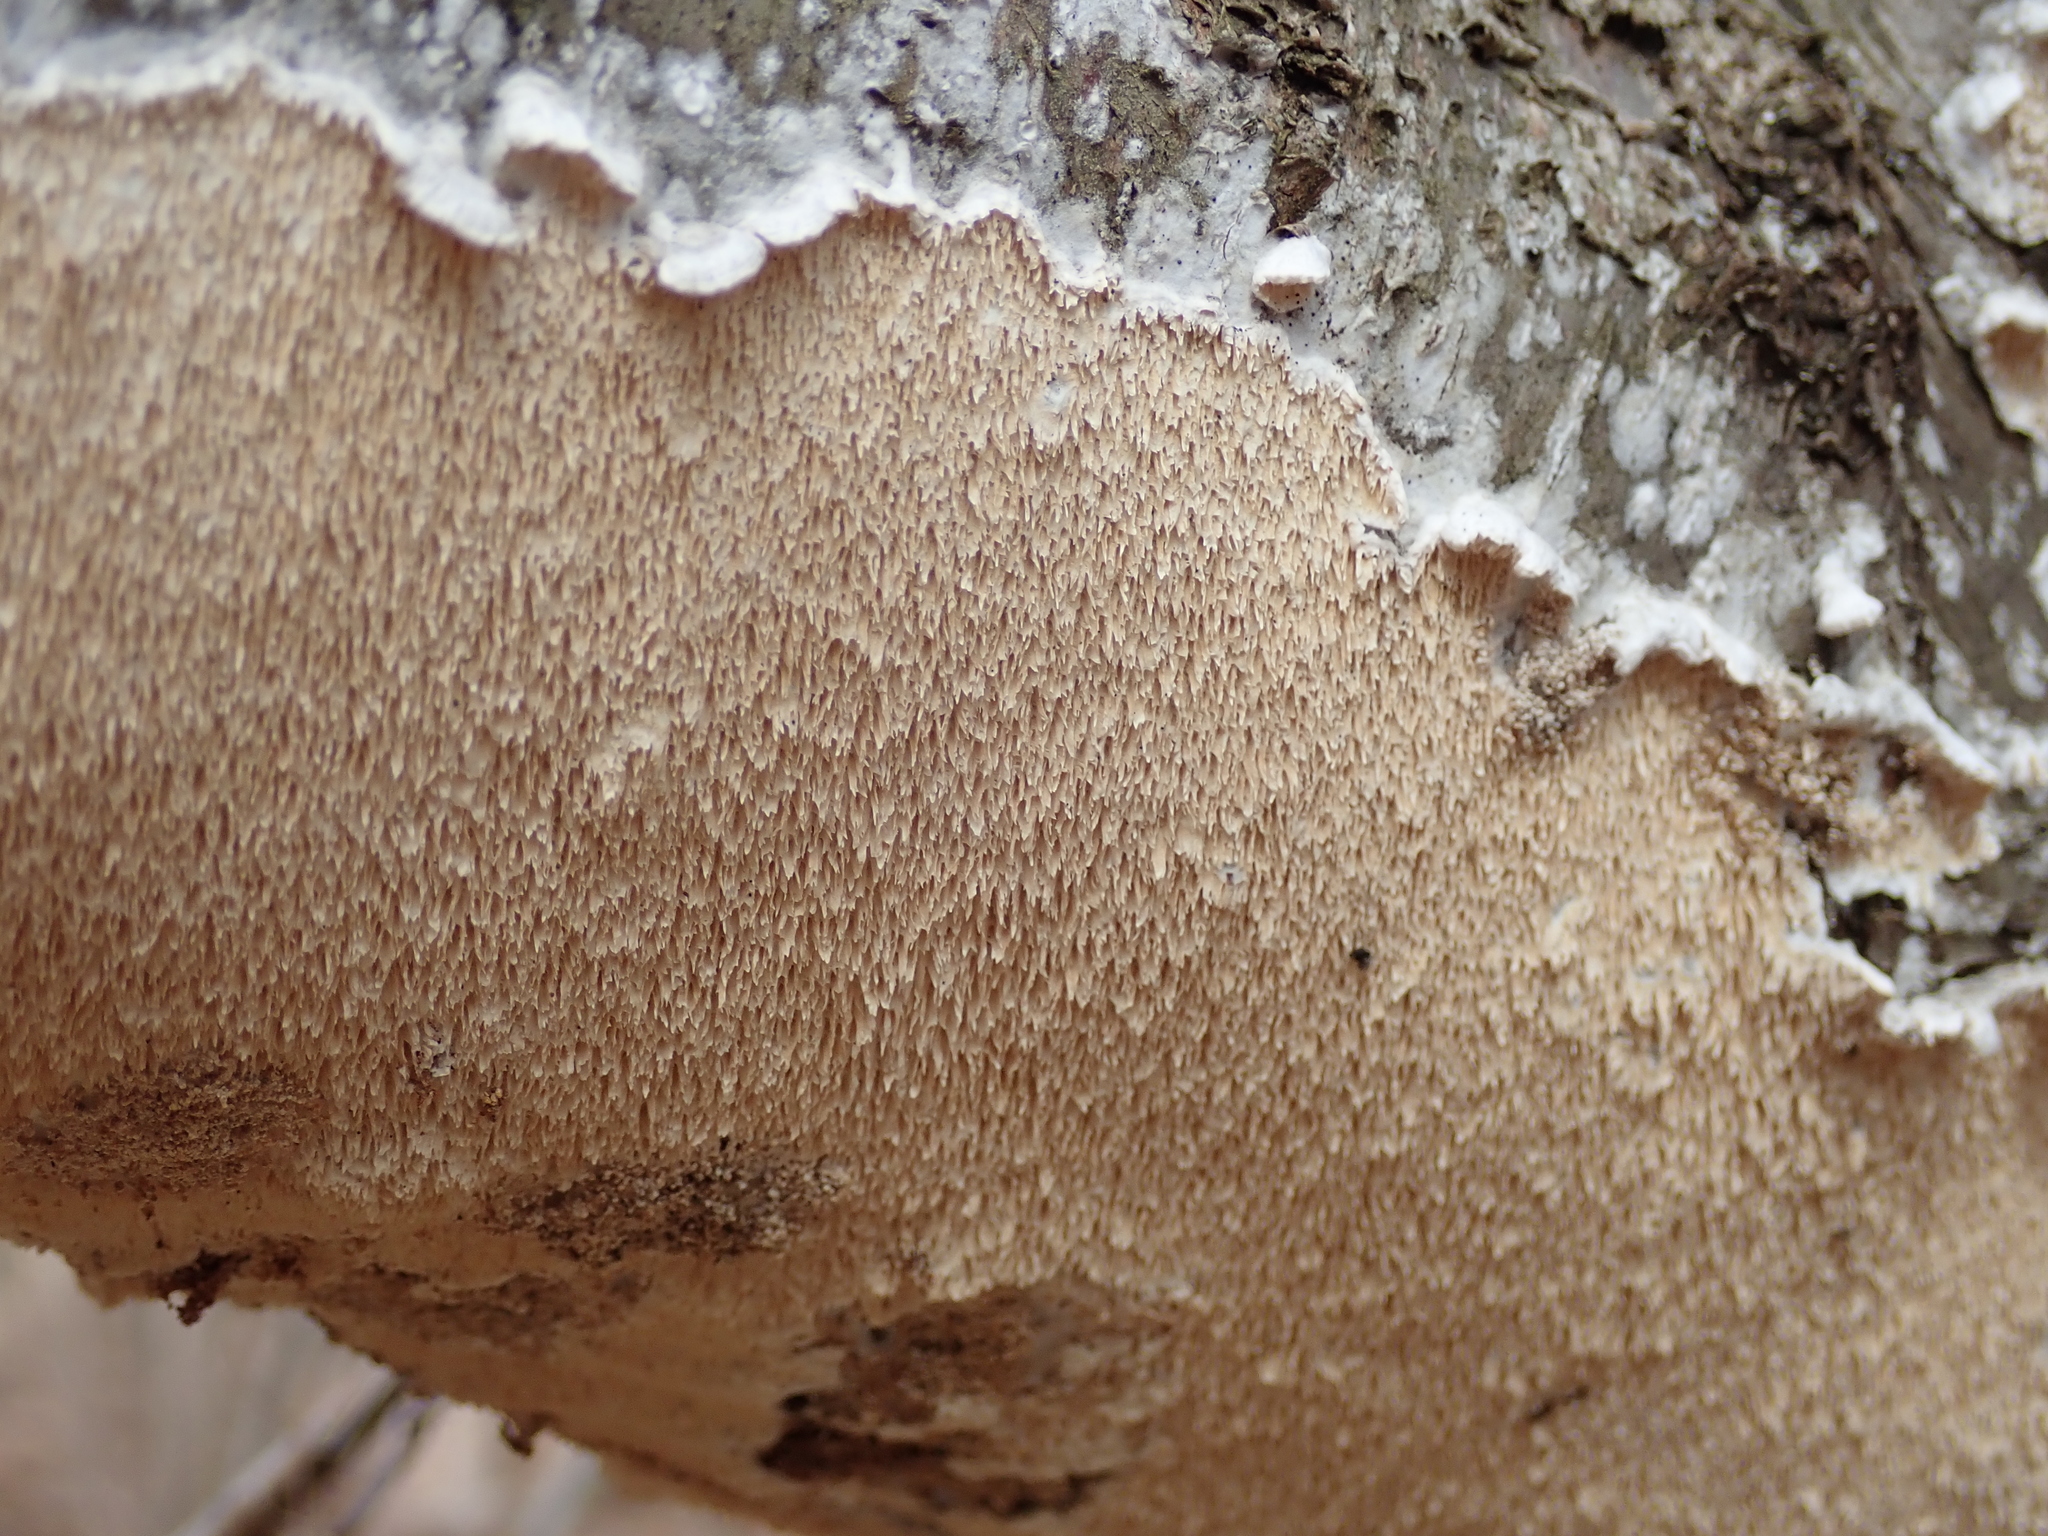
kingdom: Fungi
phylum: Basidiomycota
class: Agaricomycetes
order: Polyporales
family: Irpicaceae
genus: Irpex
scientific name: Irpex lacteus
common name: Milk-white toothed polypore
